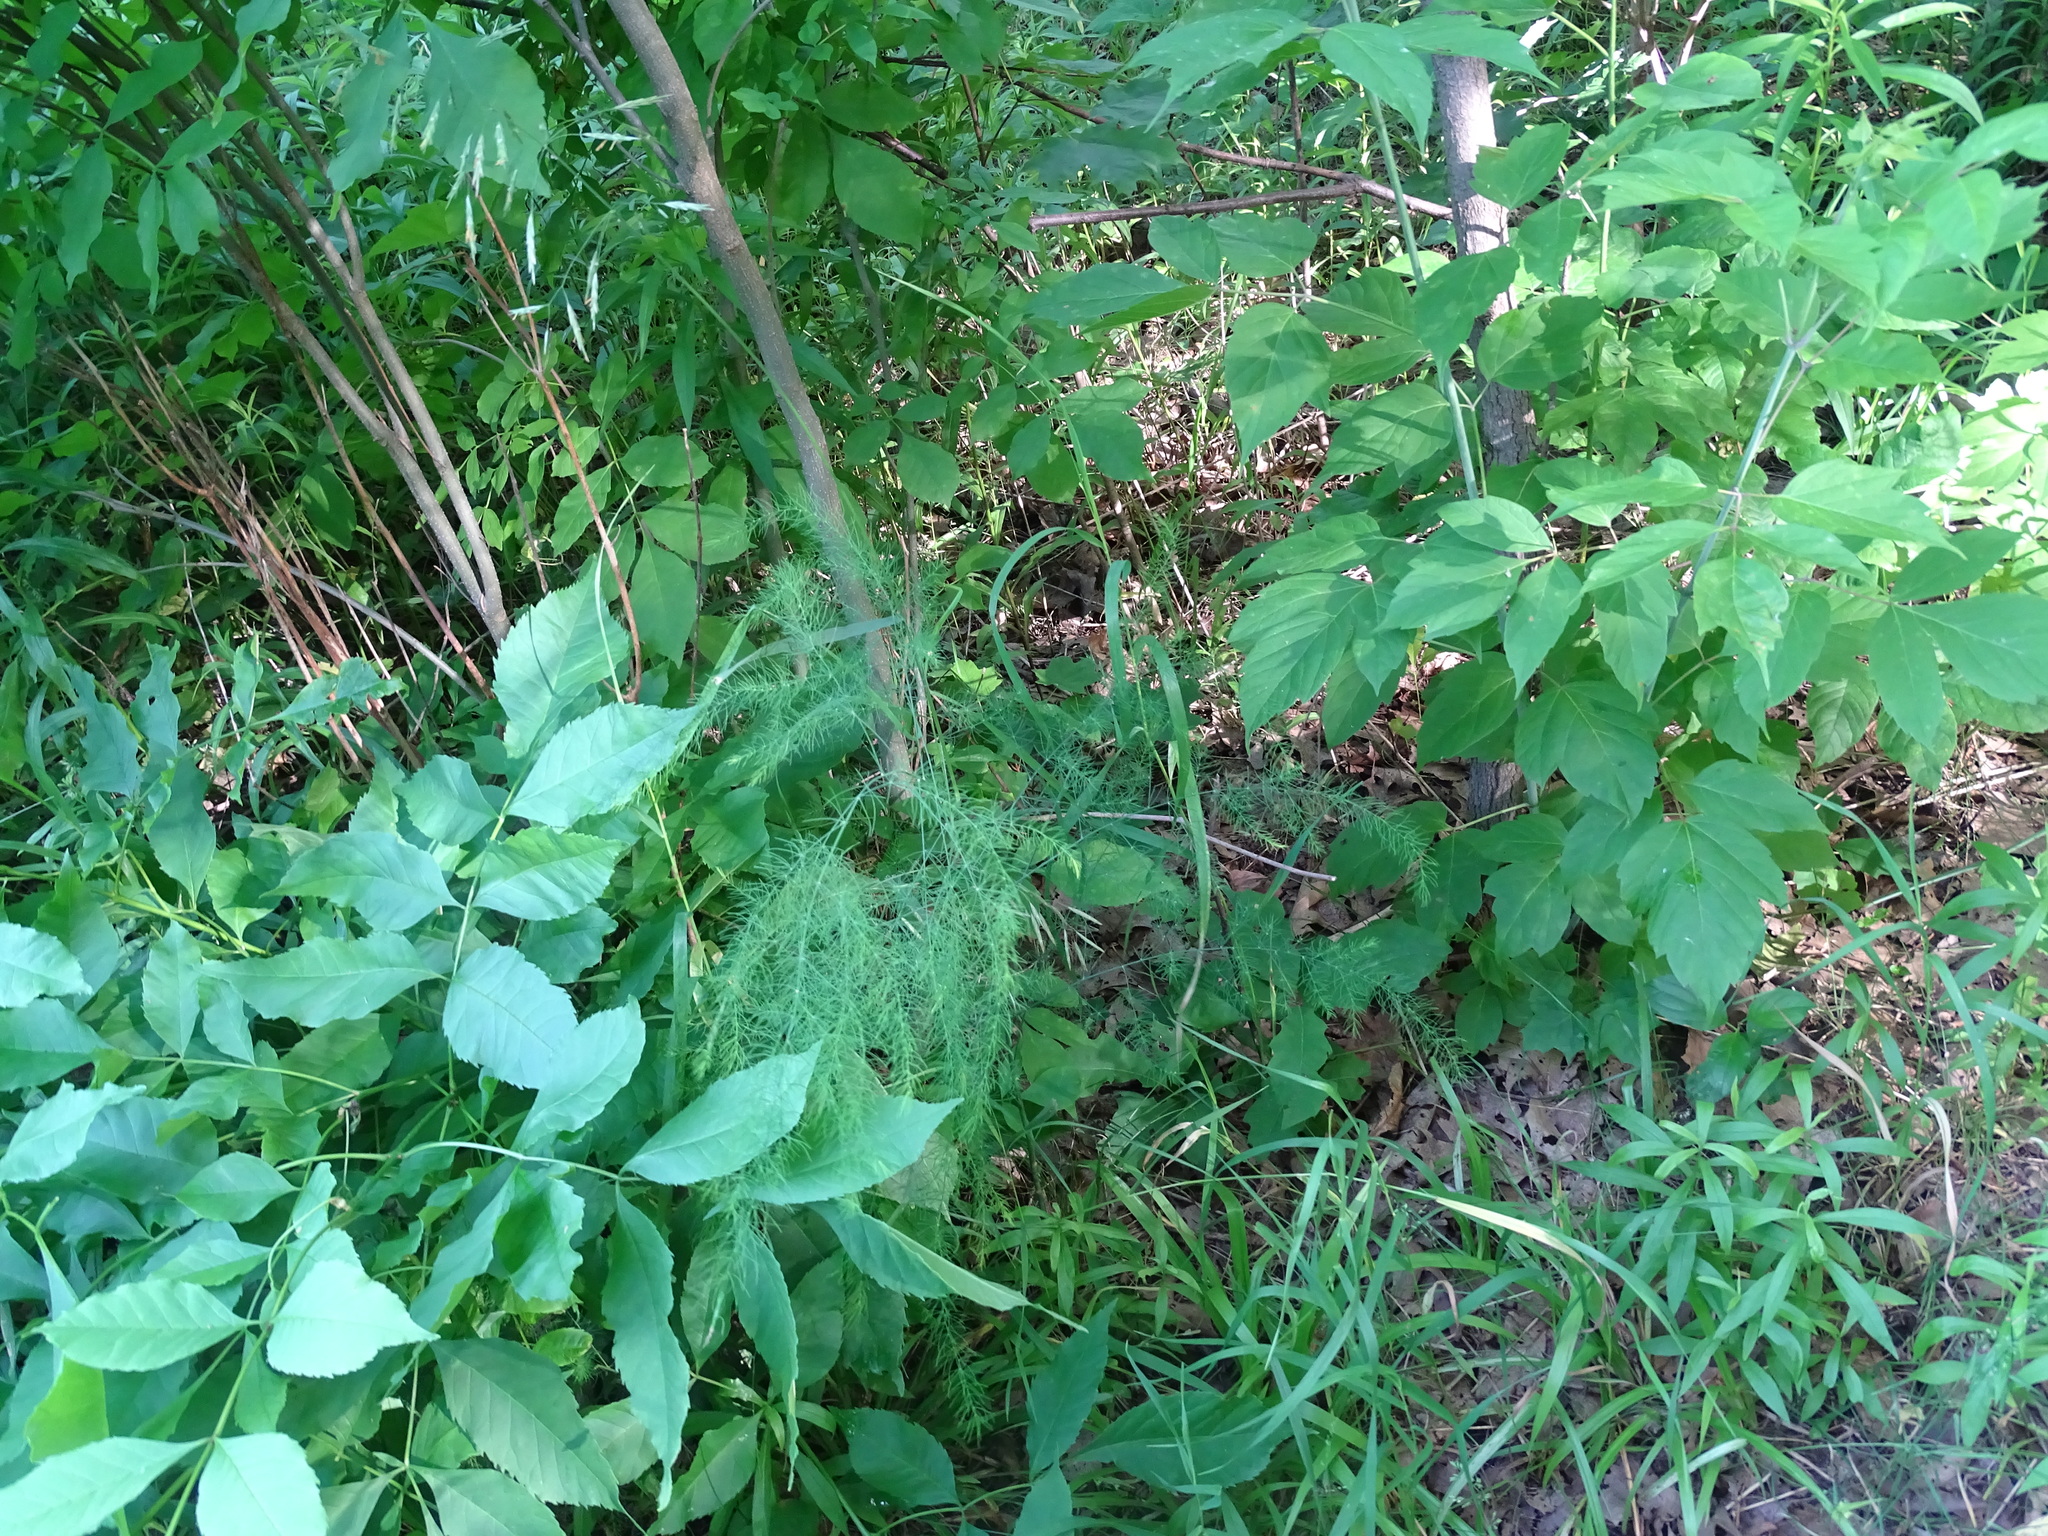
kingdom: Plantae
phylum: Tracheophyta
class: Liliopsida
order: Asparagales
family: Asparagaceae
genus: Asparagus
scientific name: Asparagus officinalis
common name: Garden asparagus
